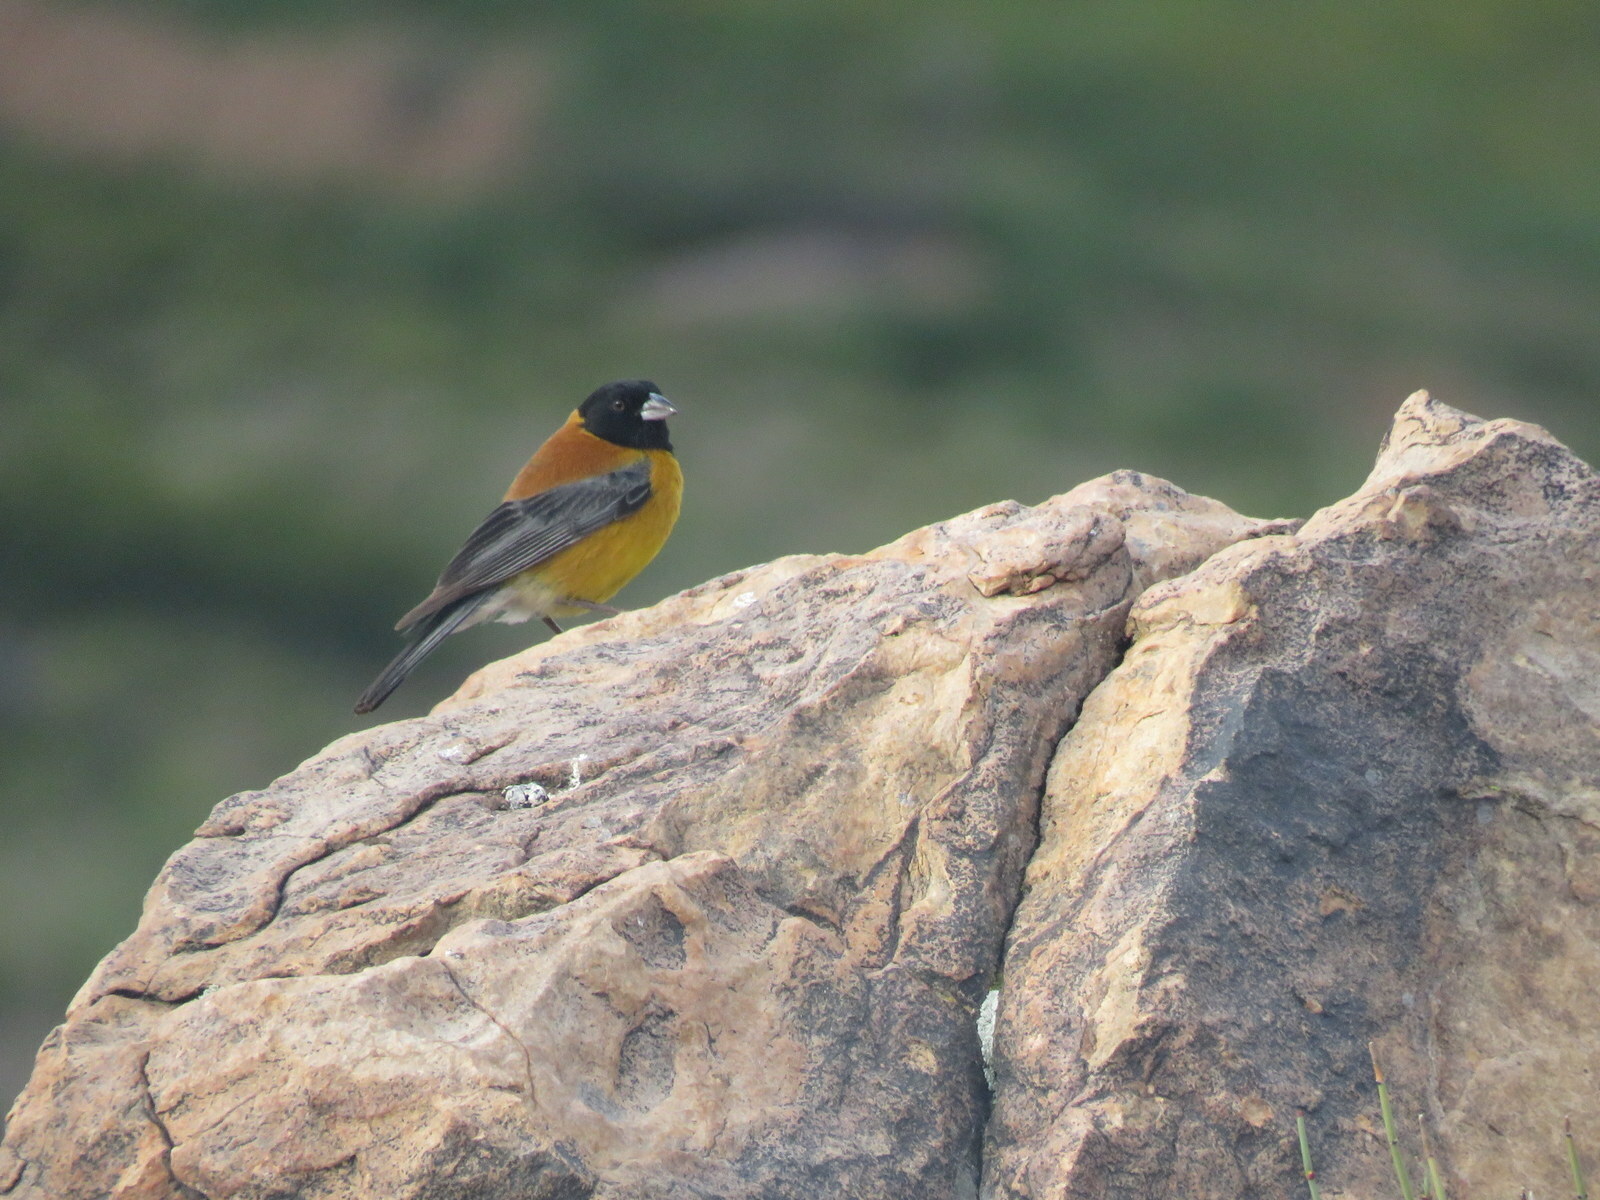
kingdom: Animalia
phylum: Chordata
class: Aves
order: Passeriformes
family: Thraupidae
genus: Phrygilus
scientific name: Phrygilus atriceps
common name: Black-hooded sierra finch
